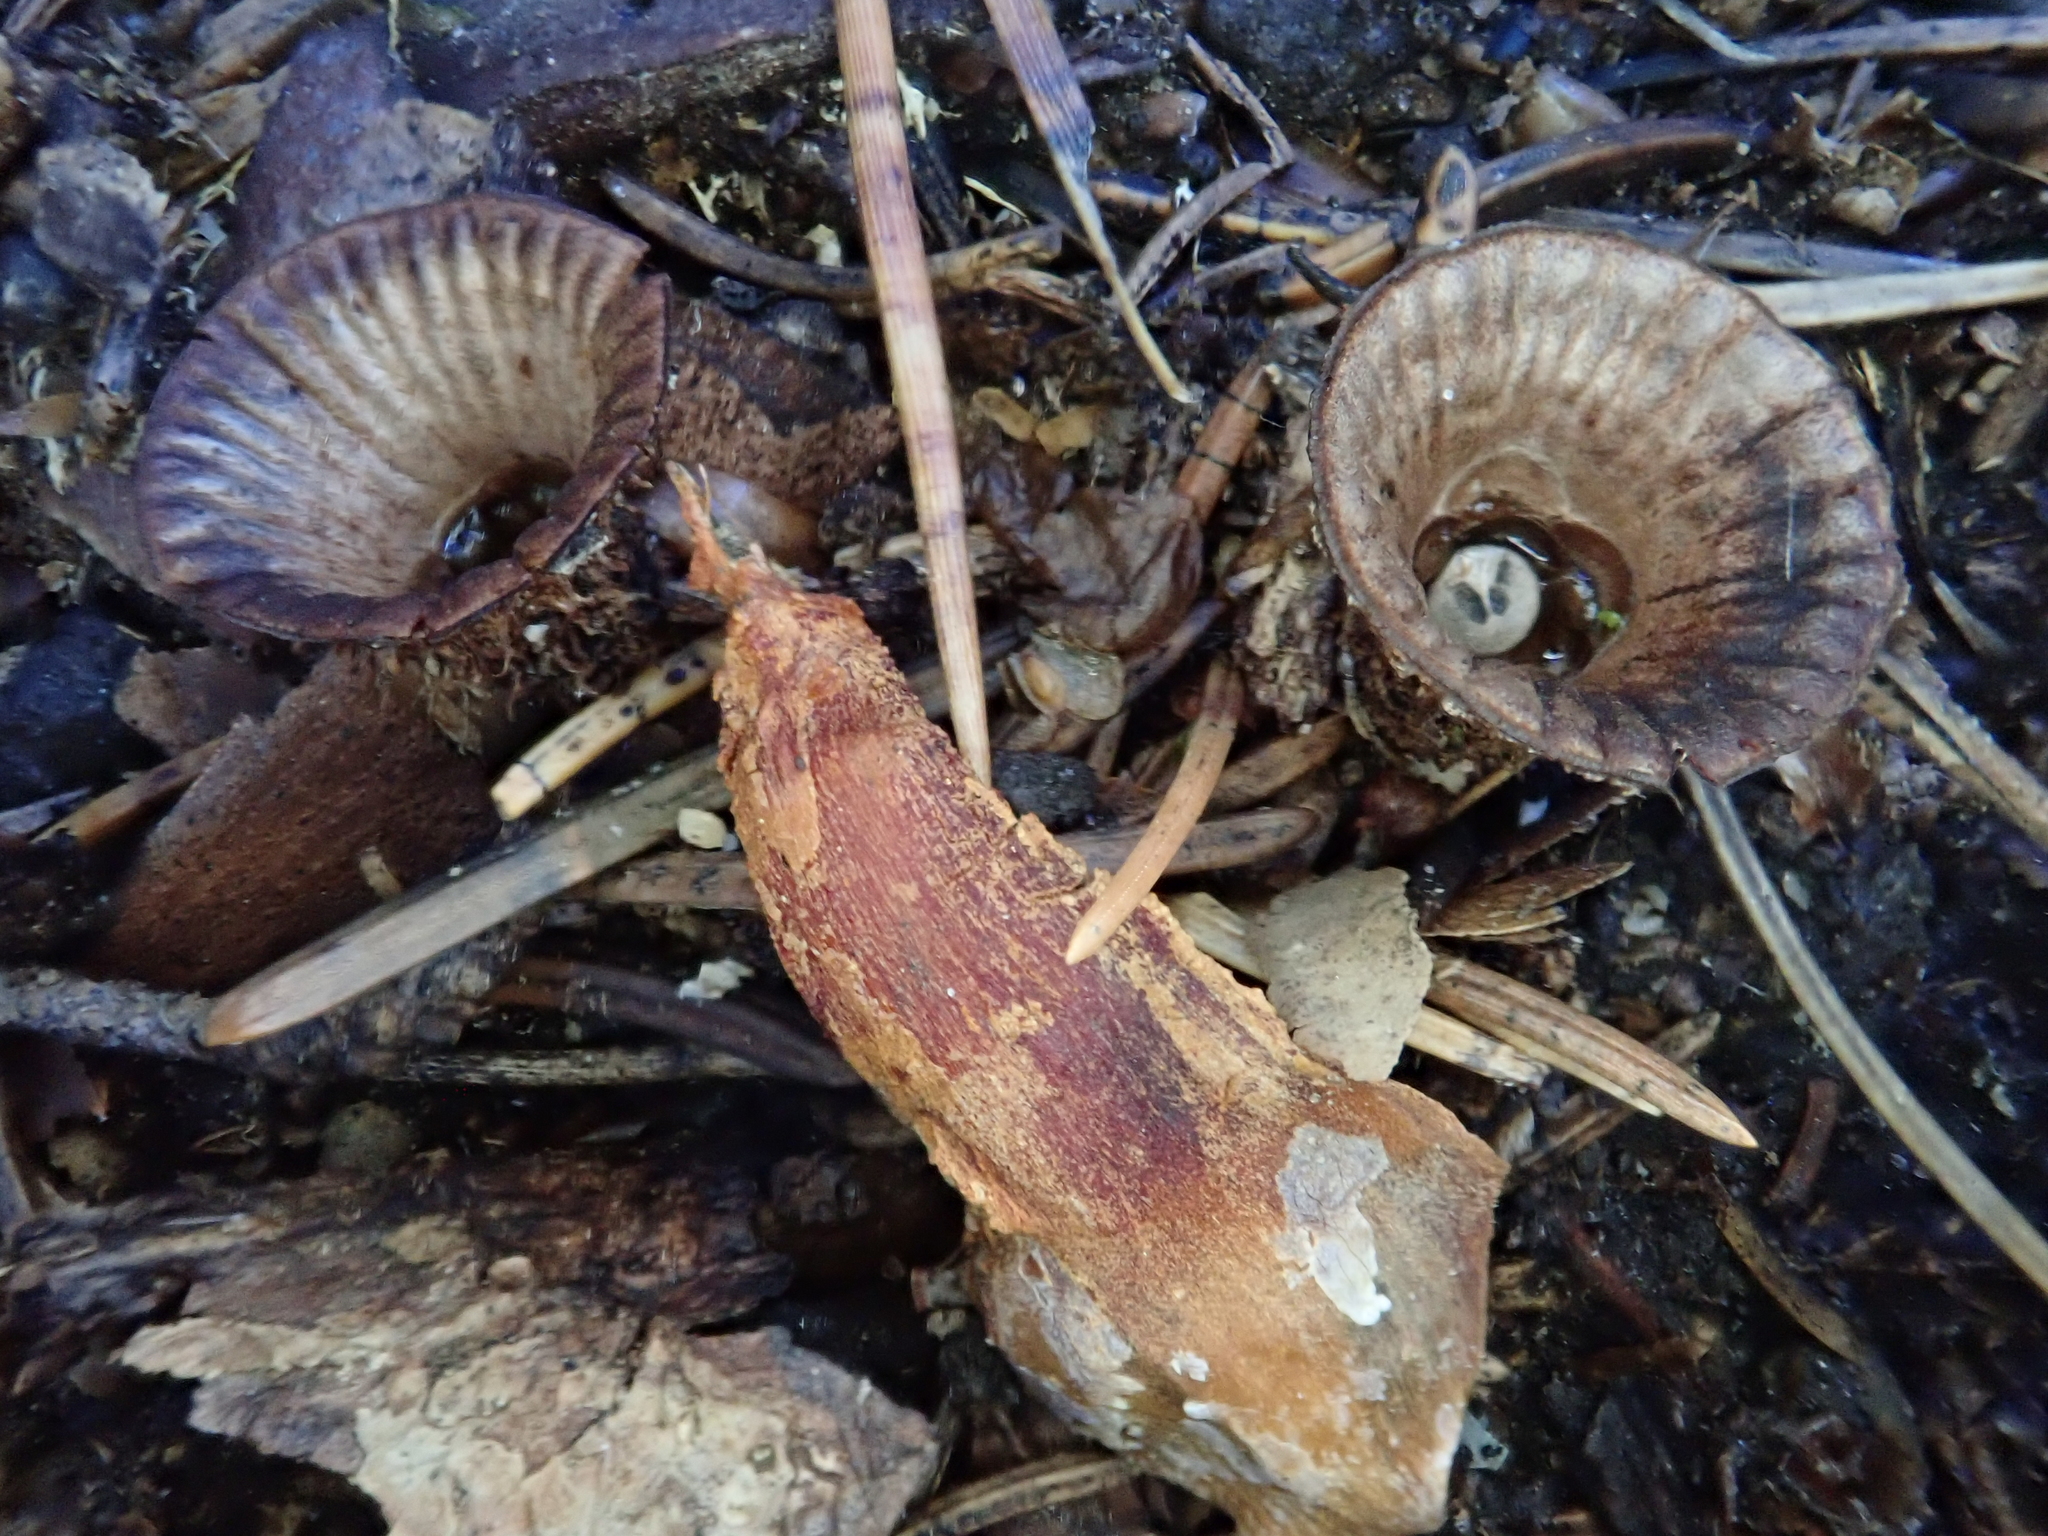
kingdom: Fungi
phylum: Basidiomycota
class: Agaricomycetes
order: Agaricales
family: Agaricaceae
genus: Cyathus
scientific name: Cyathus striatus
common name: Fluted bird's nest
